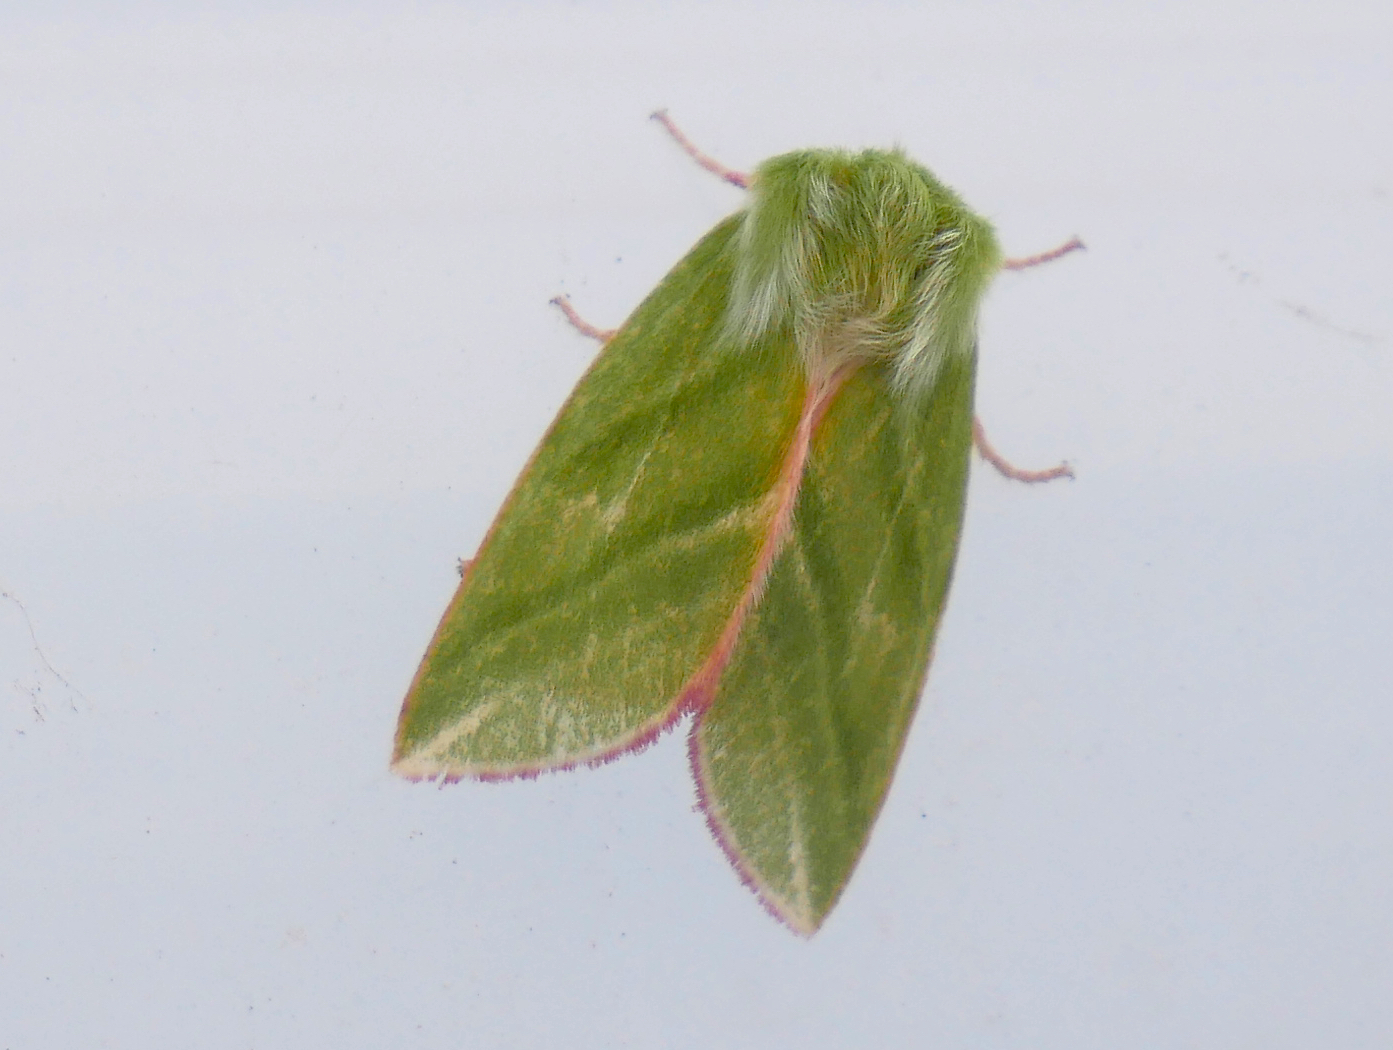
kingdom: Animalia
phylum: Arthropoda
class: Insecta
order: Lepidoptera
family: Nolidae
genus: Pseudoips
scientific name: Pseudoips prasinana
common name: Green silver-lines
